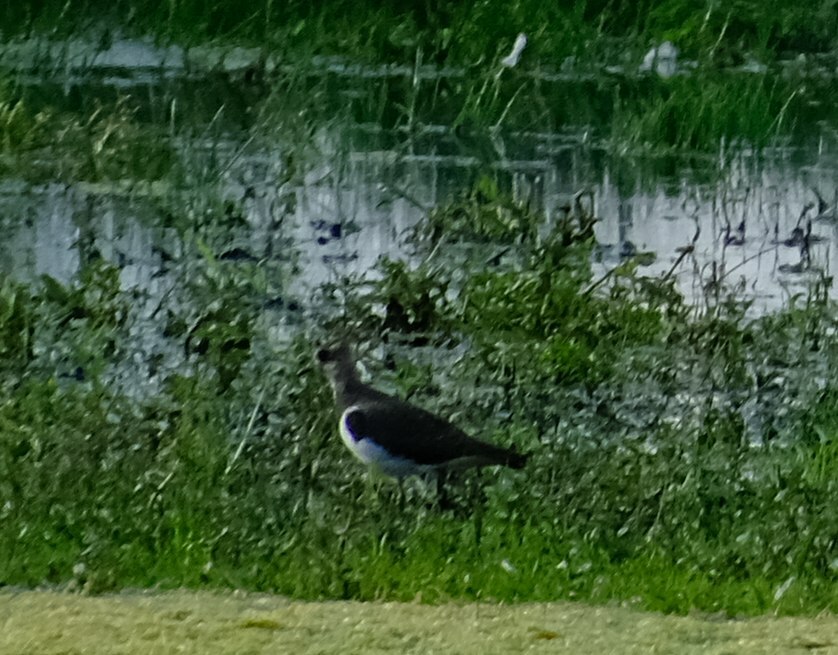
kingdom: Animalia
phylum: Chordata
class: Aves
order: Charadriiformes
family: Charadriidae
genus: Vanellus
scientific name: Vanellus vanellus
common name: Northern lapwing
